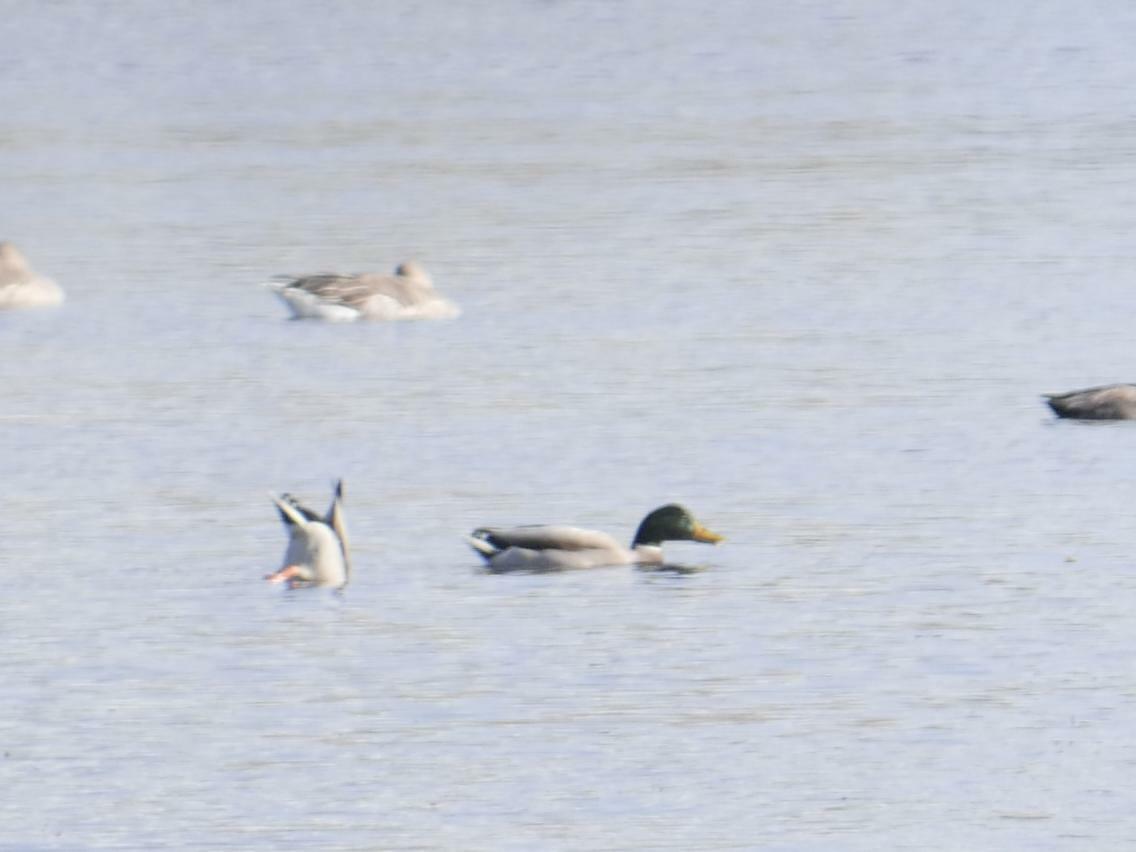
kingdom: Animalia
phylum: Chordata
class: Aves
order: Anseriformes
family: Anatidae
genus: Anas
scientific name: Anas platyrhynchos
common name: Mallard
